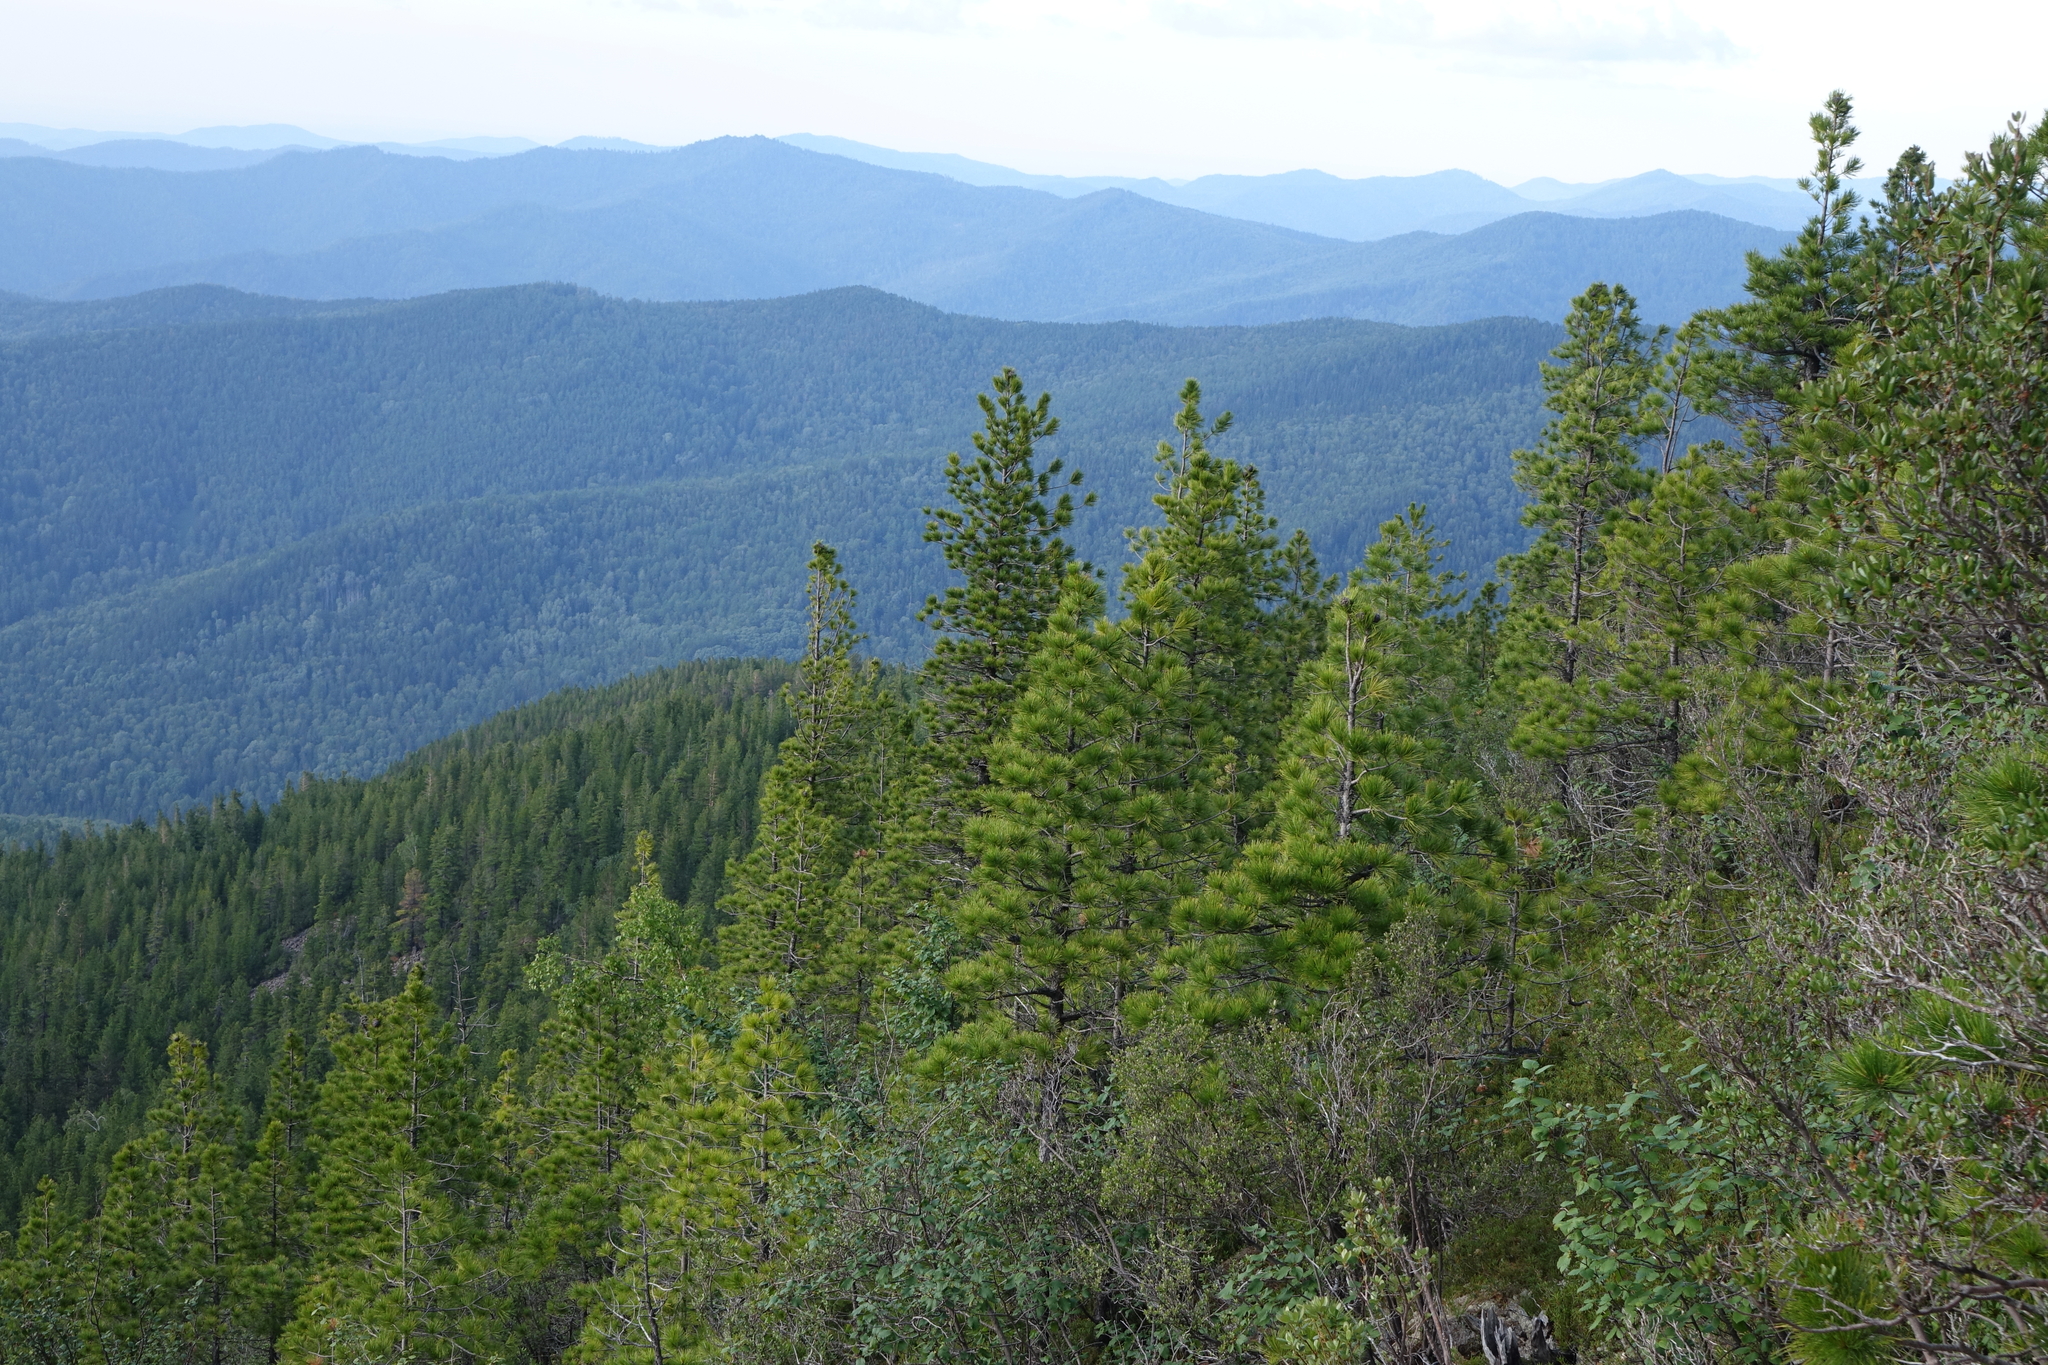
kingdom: Plantae
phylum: Tracheophyta
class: Pinopsida
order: Pinales
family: Pinaceae
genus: Pinus
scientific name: Pinus sibirica
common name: Siberian pine
